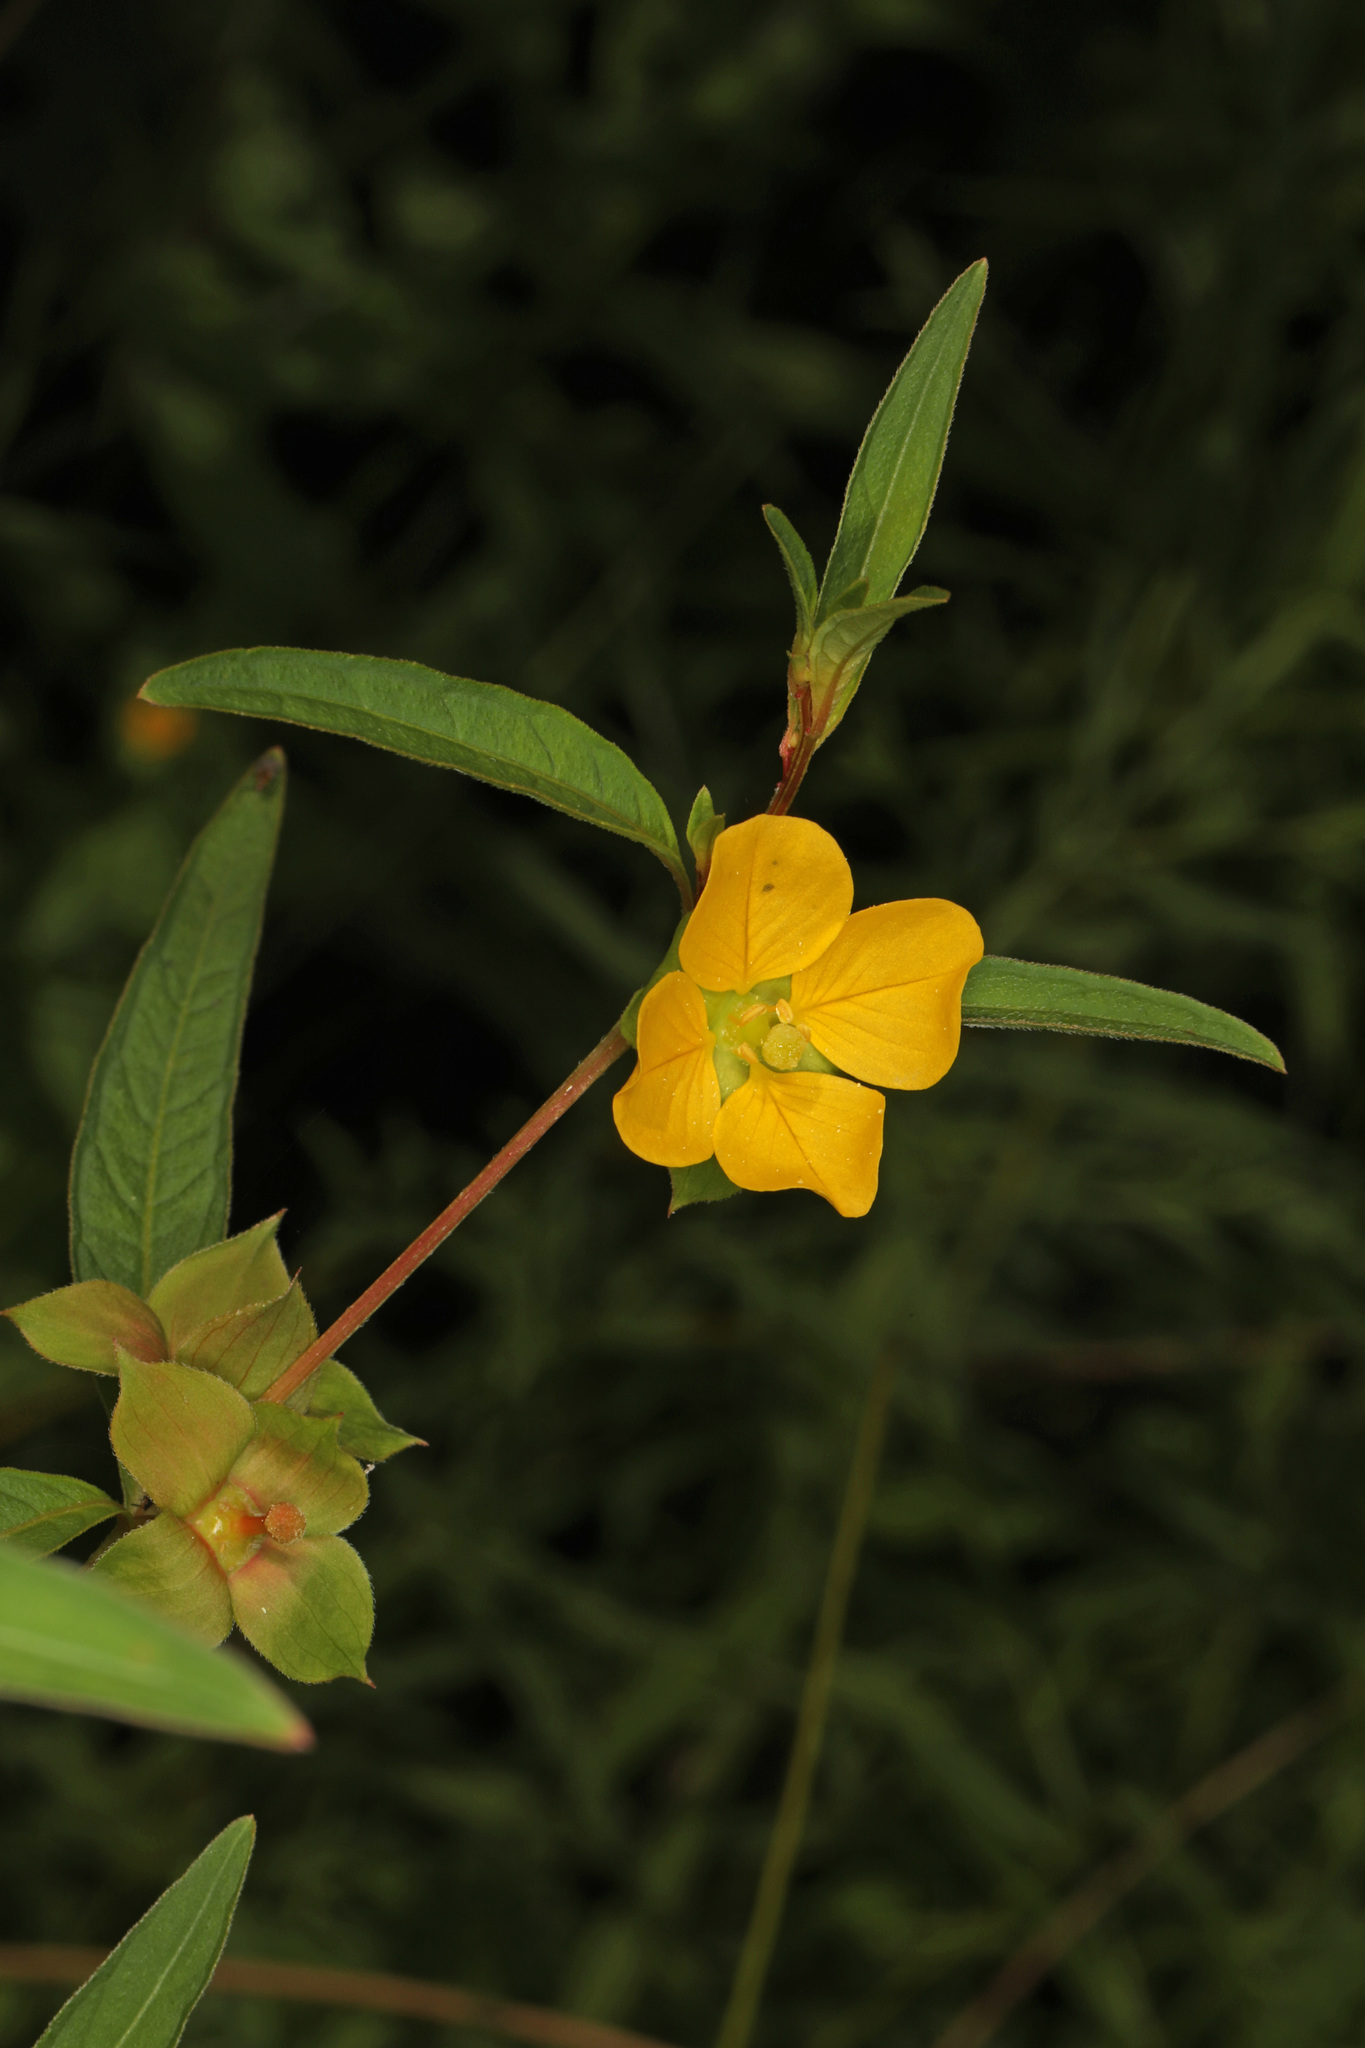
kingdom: Plantae
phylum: Tracheophyta
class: Magnoliopsida
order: Myrtales
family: Onagraceae
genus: Ludwigia
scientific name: Ludwigia alternifolia
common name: Rattlebox
